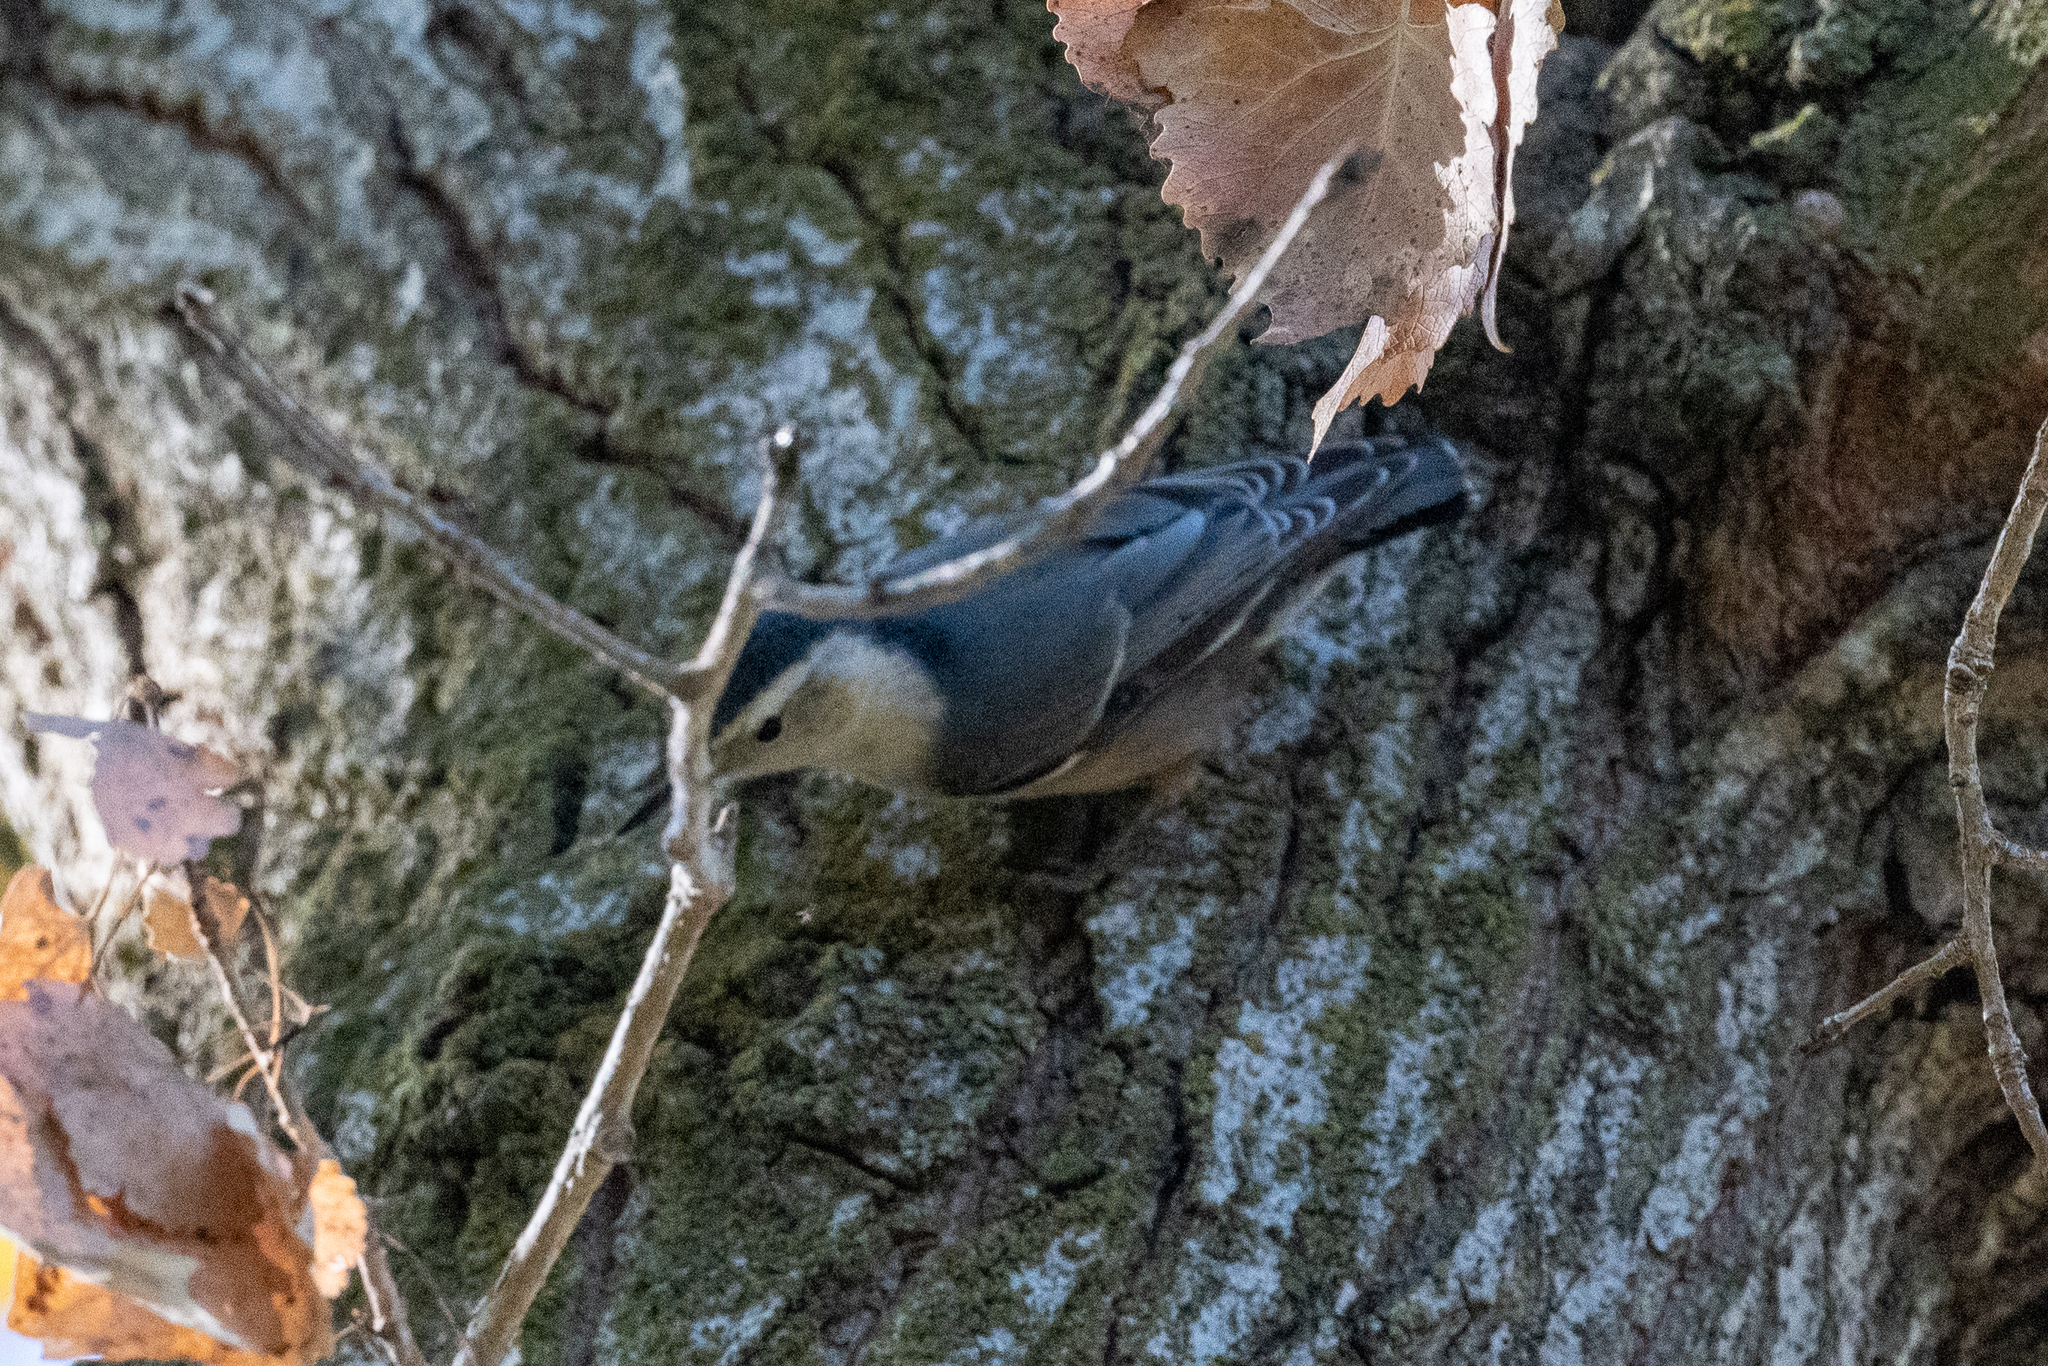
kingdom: Animalia
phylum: Chordata
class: Aves
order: Passeriformes
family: Sittidae
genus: Sitta
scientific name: Sitta carolinensis
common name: White-breasted nuthatch
